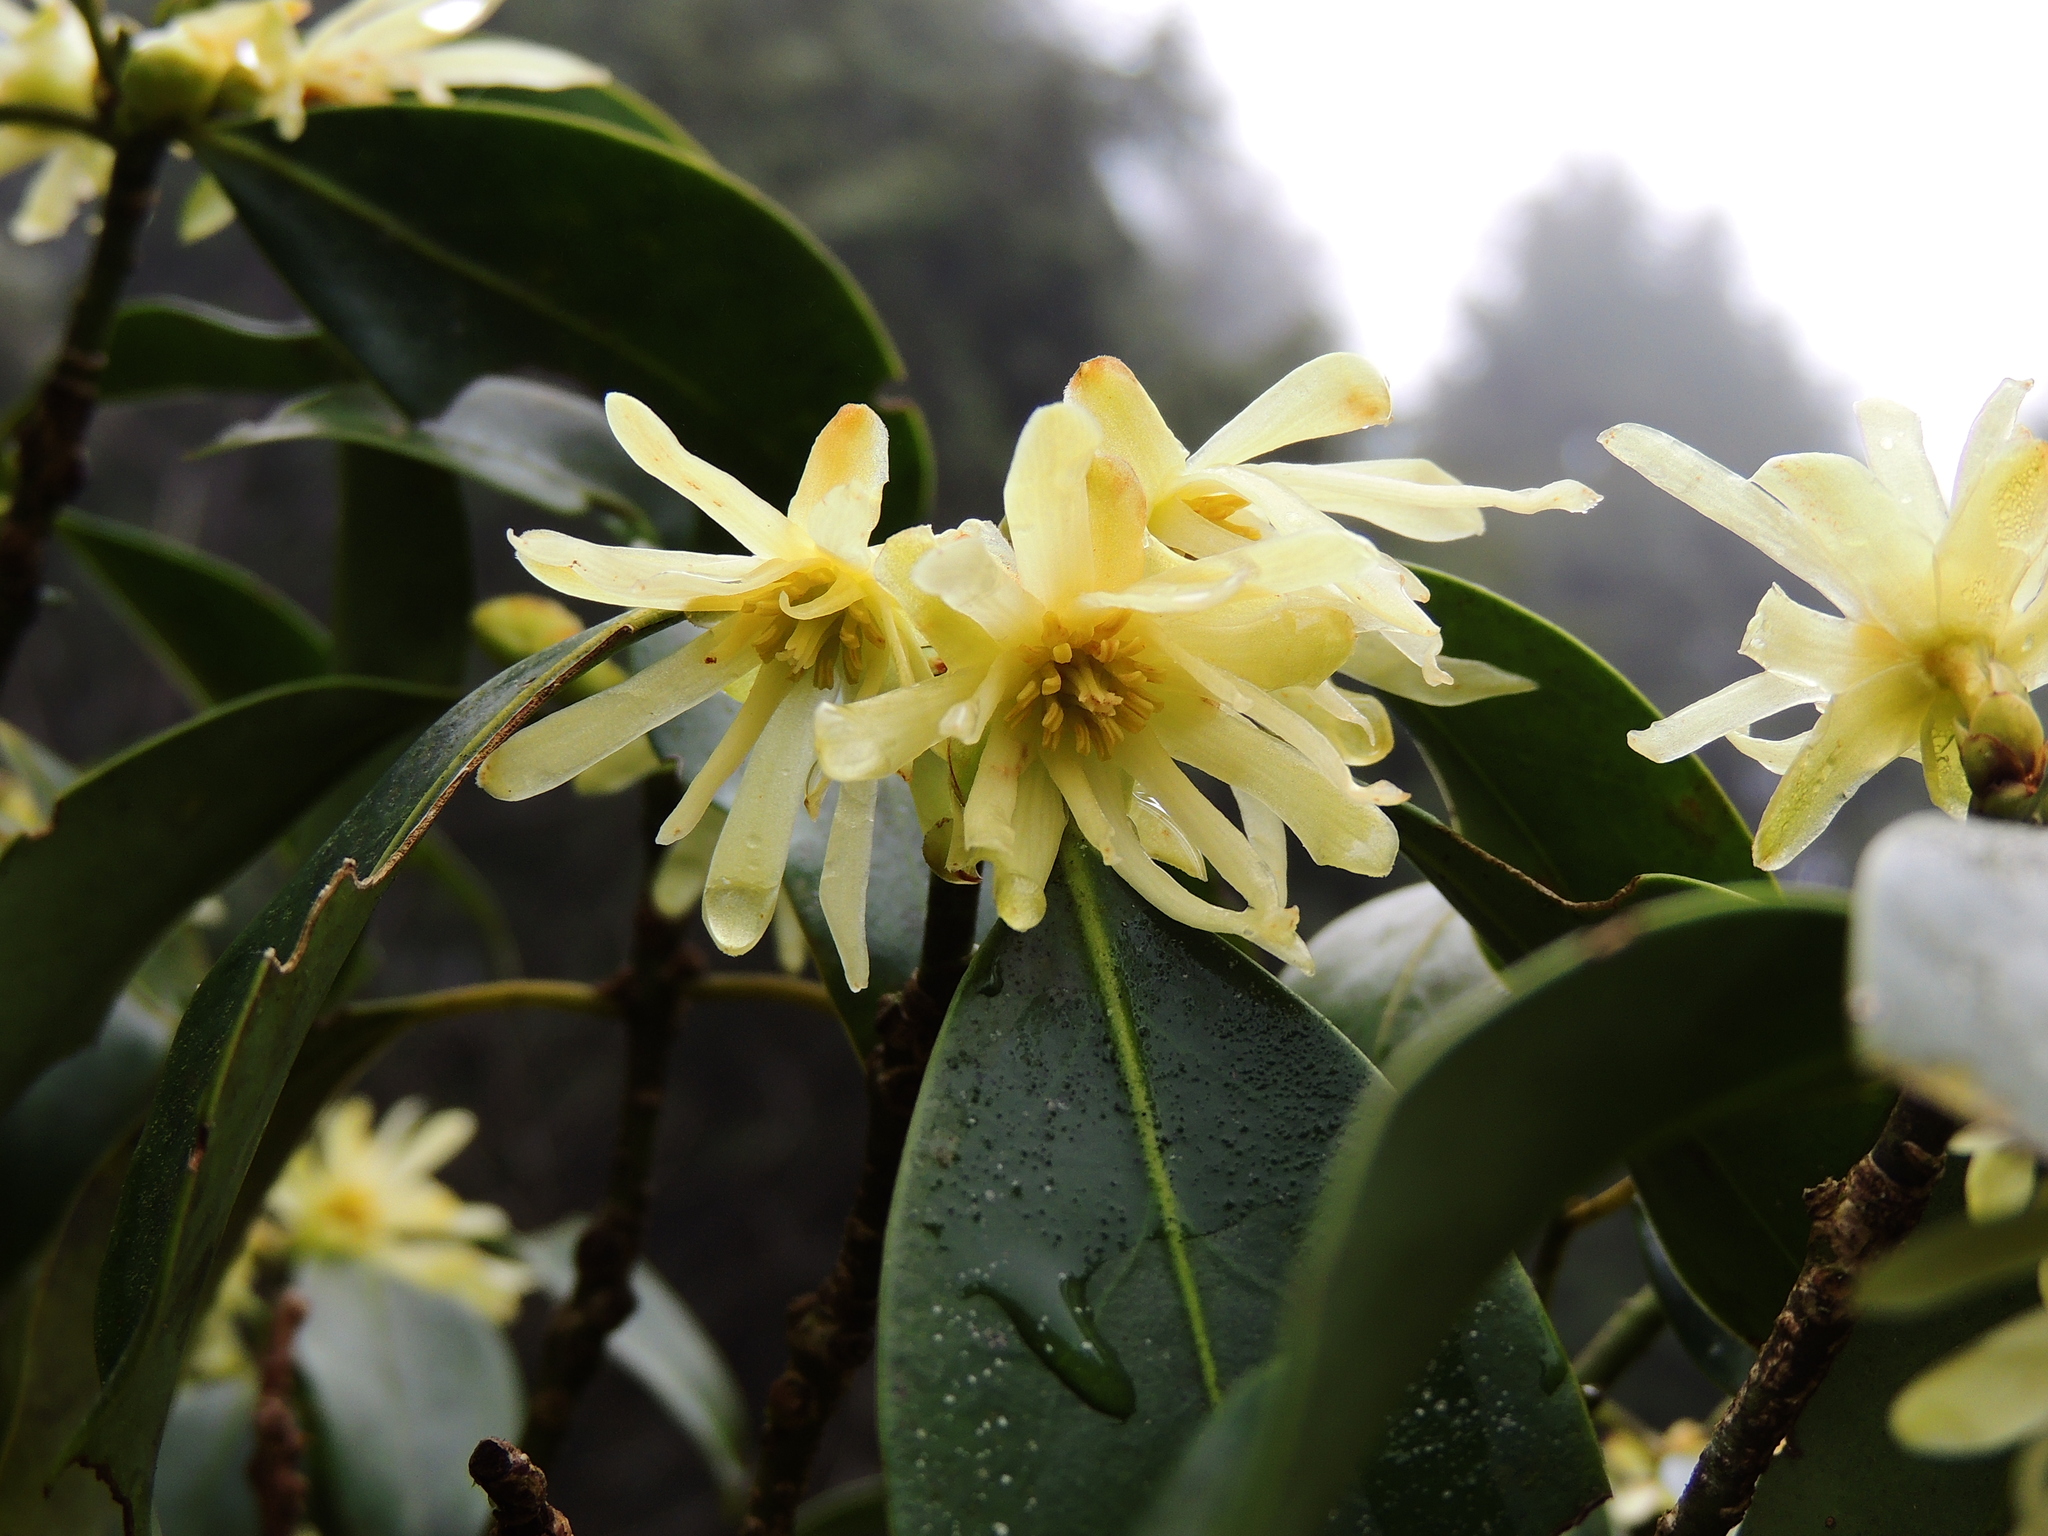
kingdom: Plantae
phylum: Tracheophyta
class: Magnoliopsida
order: Austrobaileyales
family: Schisandraceae
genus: Illicium
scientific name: Illicium anisatum
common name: Sacred anisetree
